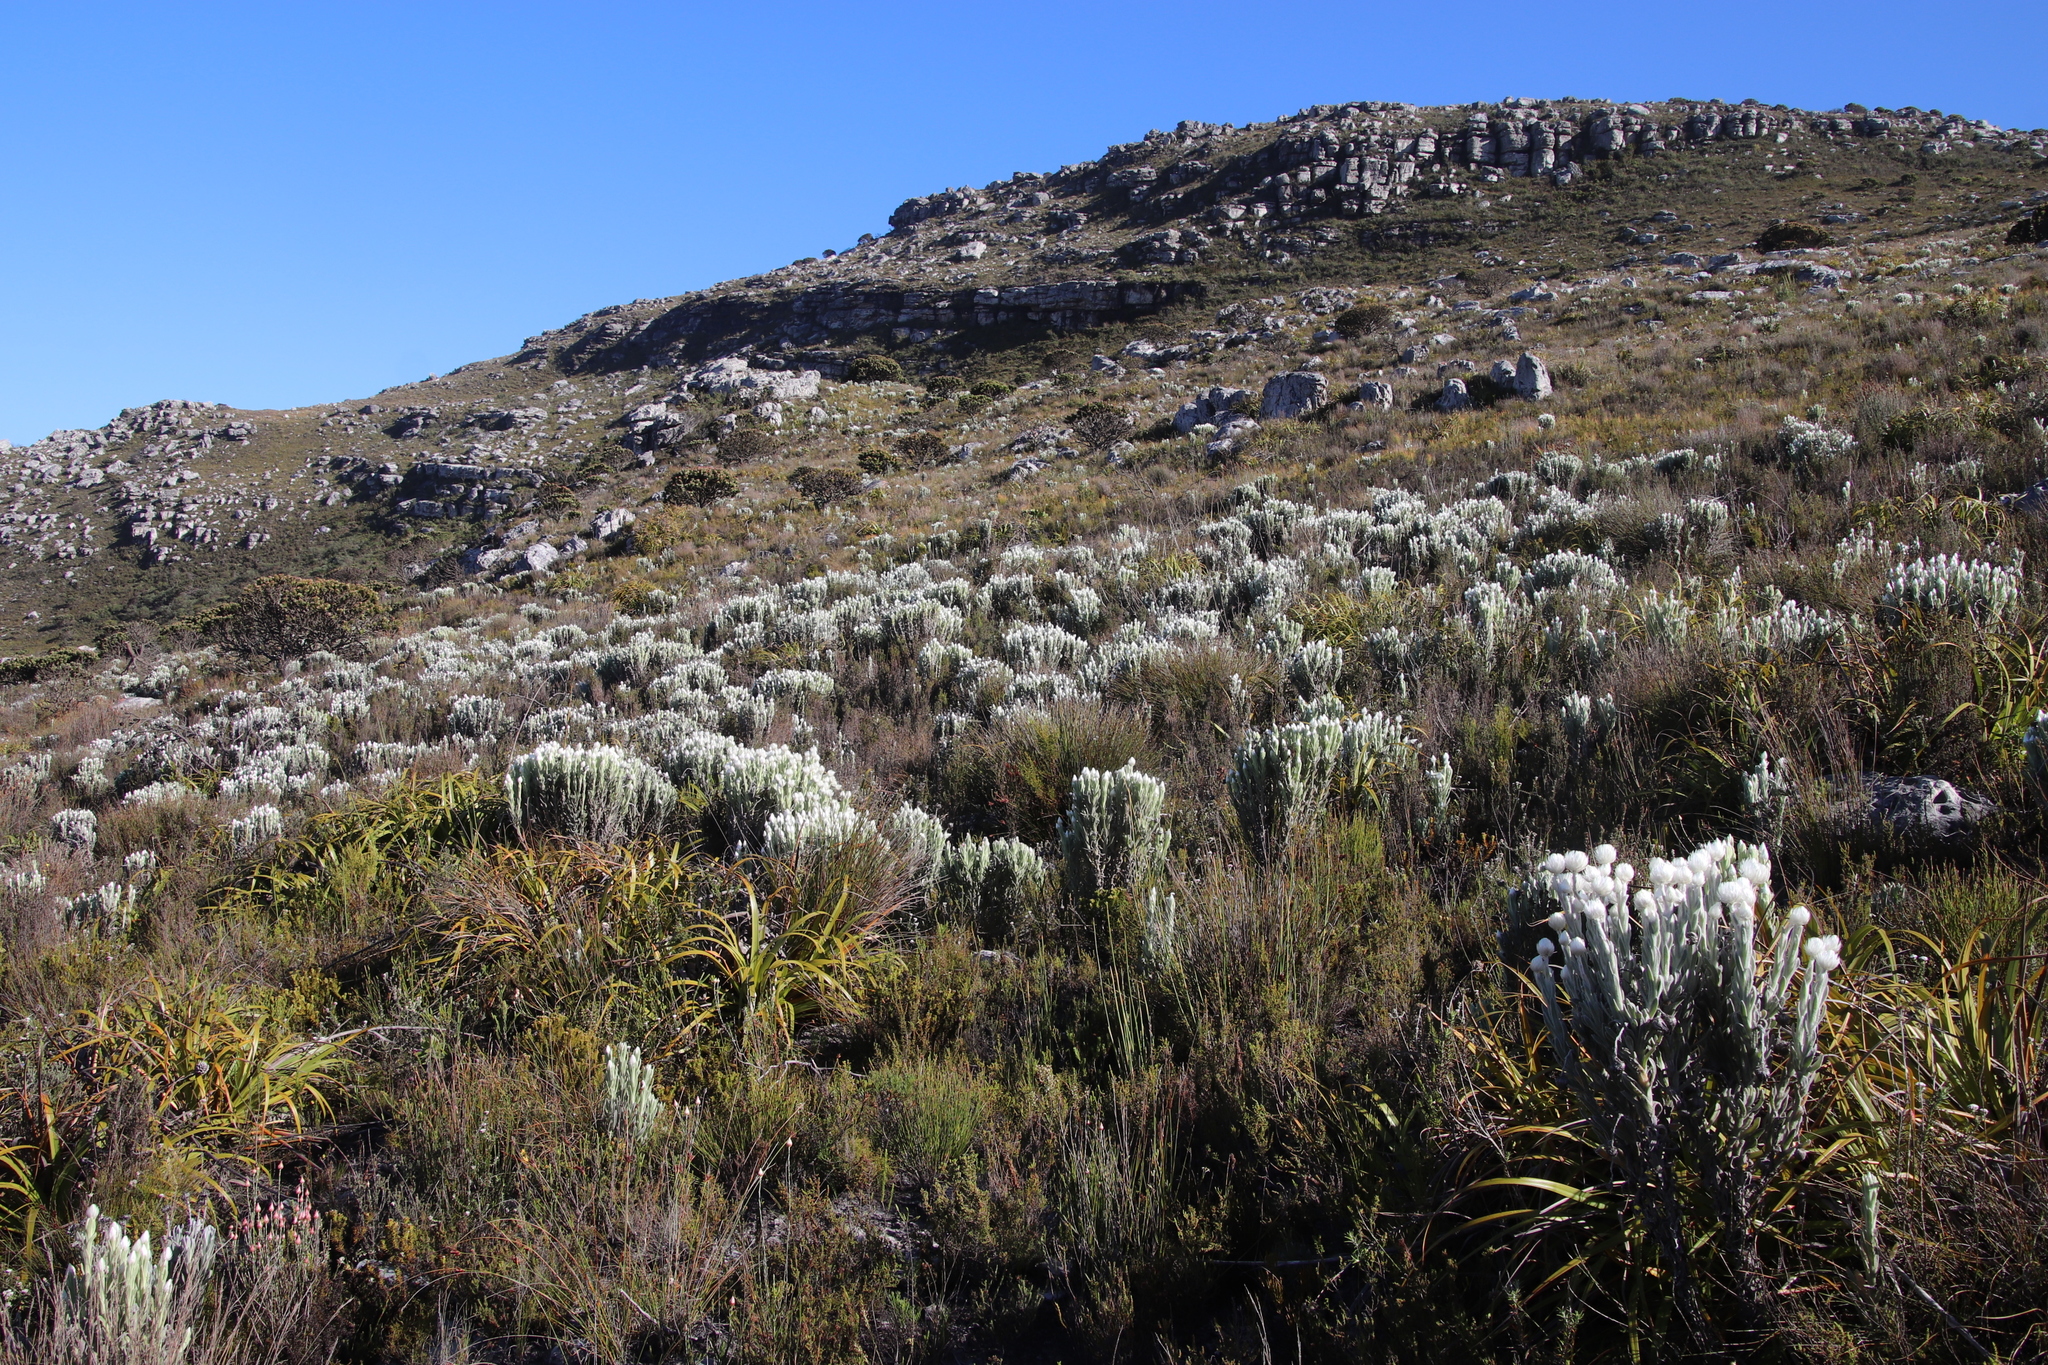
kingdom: Plantae
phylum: Tracheophyta
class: Magnoliopsida
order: Asterales
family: Asteraceae
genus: Syncarpha
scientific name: Syncarpha vestita
